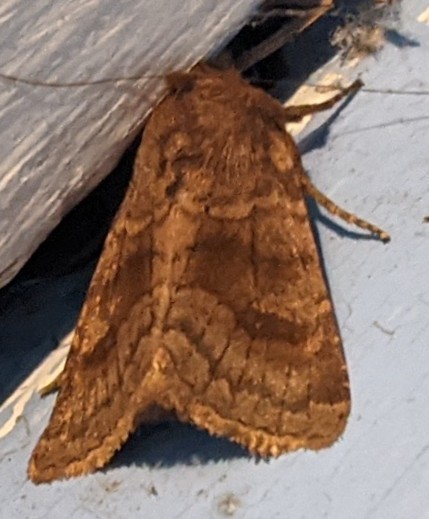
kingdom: Animalia
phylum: Arthropoda
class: Insecta
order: Lepidoptera
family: Noctuidae
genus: Nephelodes
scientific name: Nephelodes minians
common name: Bronzed cutworm
